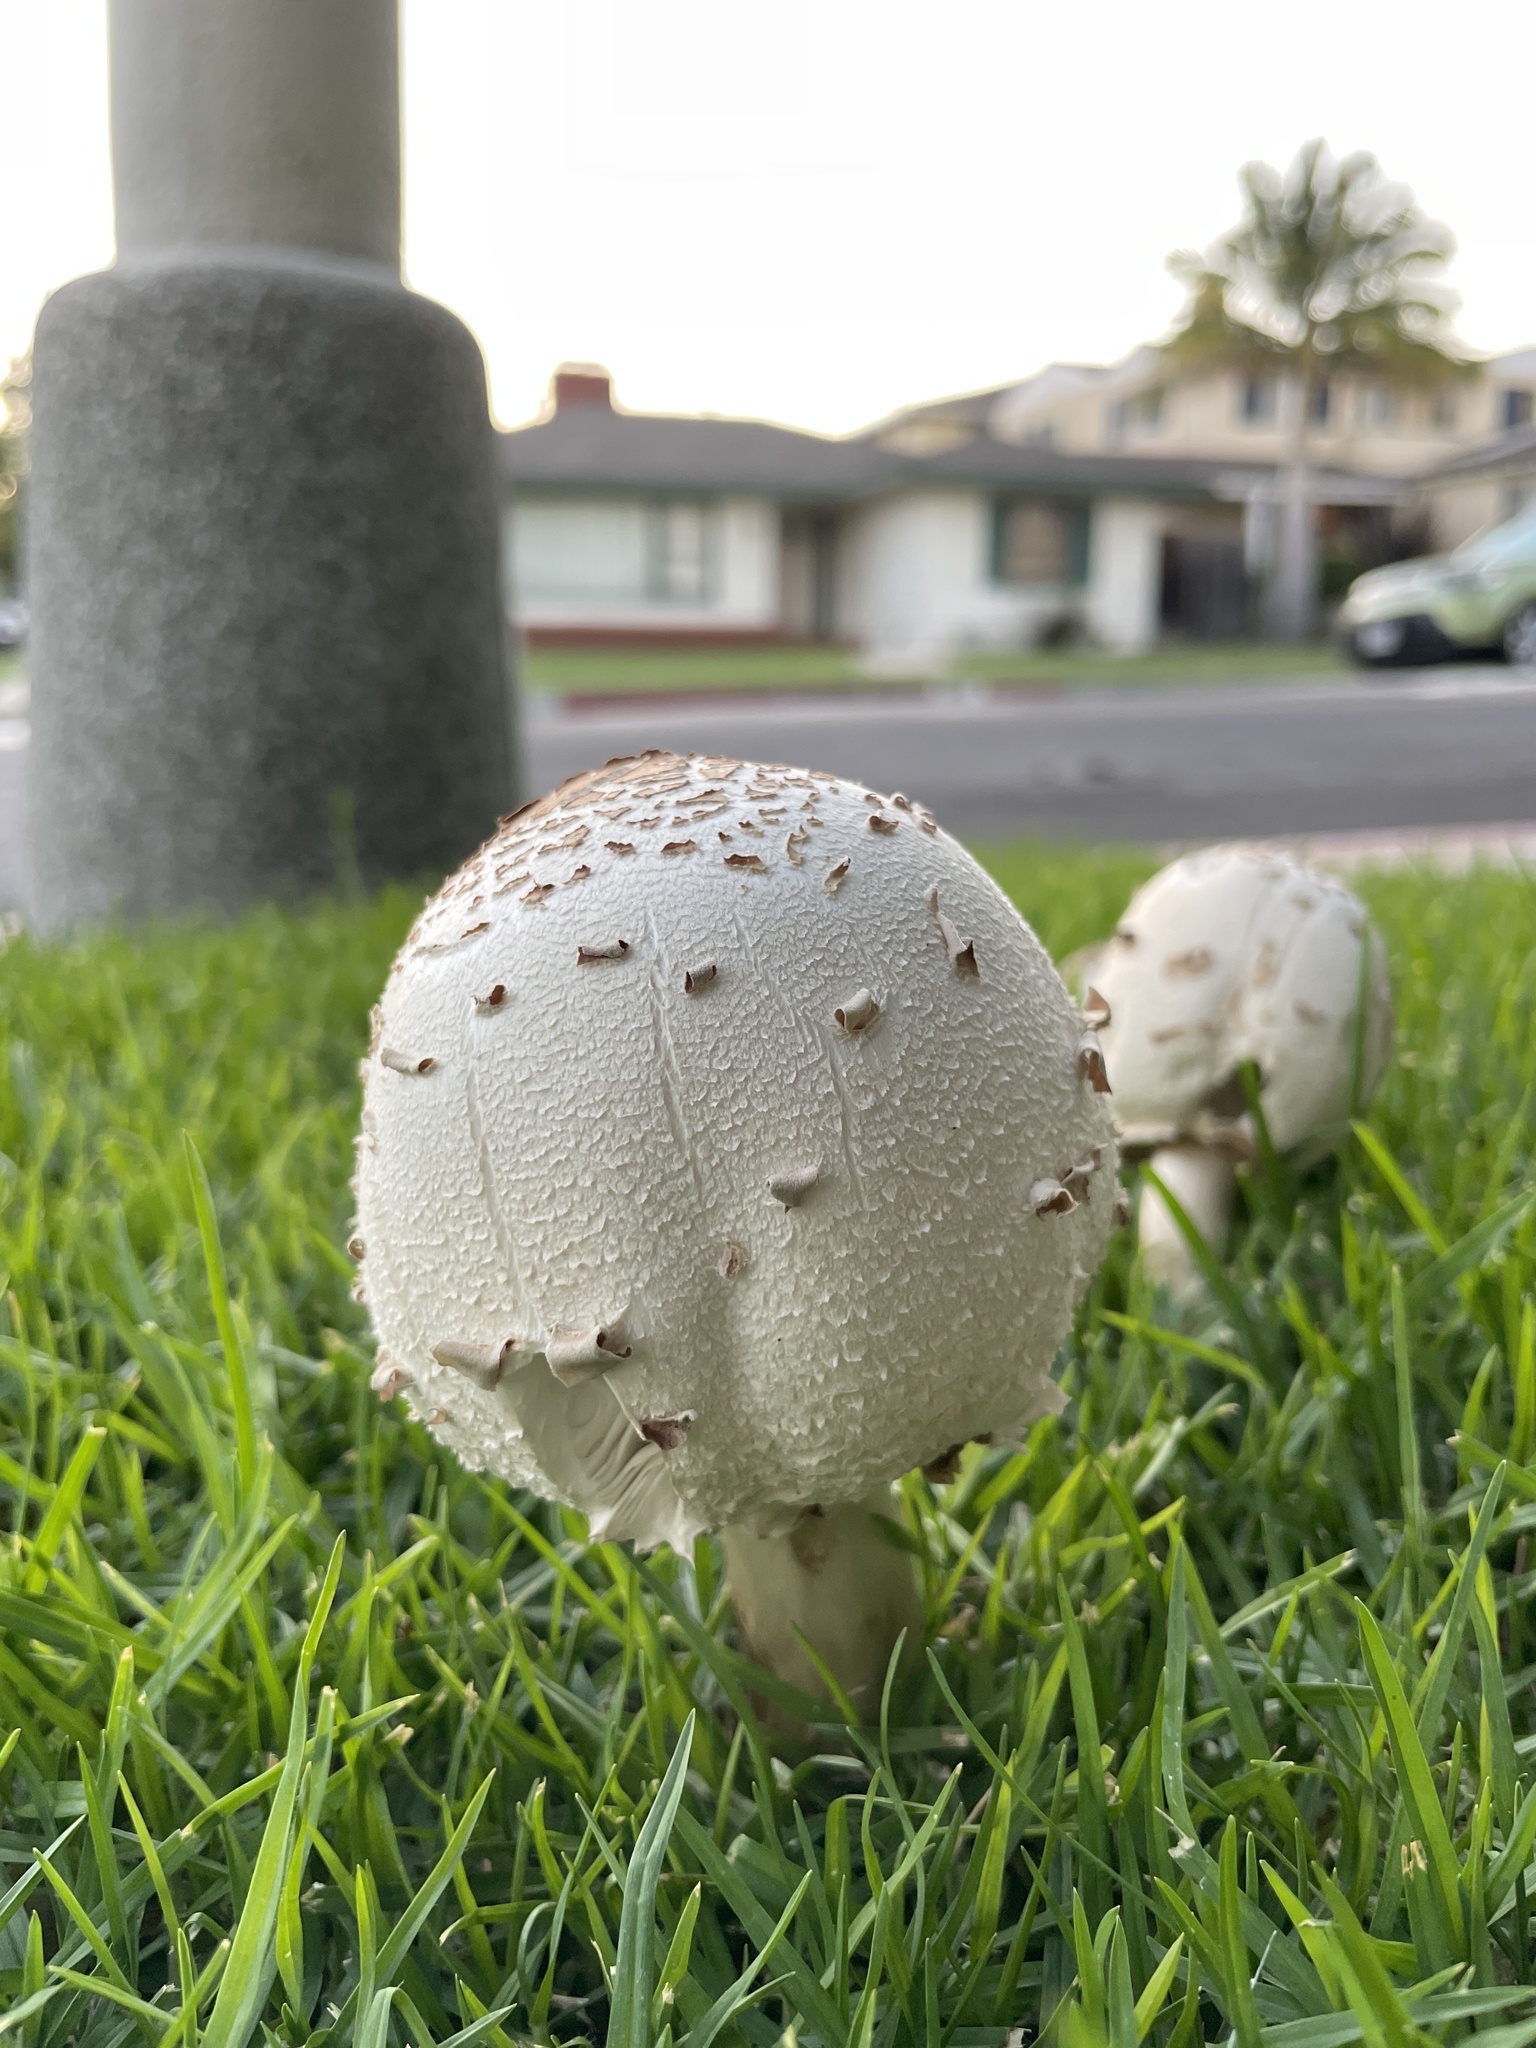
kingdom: Fungi
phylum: Basidiomycota
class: Agaricomycetes
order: Agaricales
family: Agaricaceae
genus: Chlorophyllum
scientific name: Chlorophyllum molybdites
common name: False parasol
